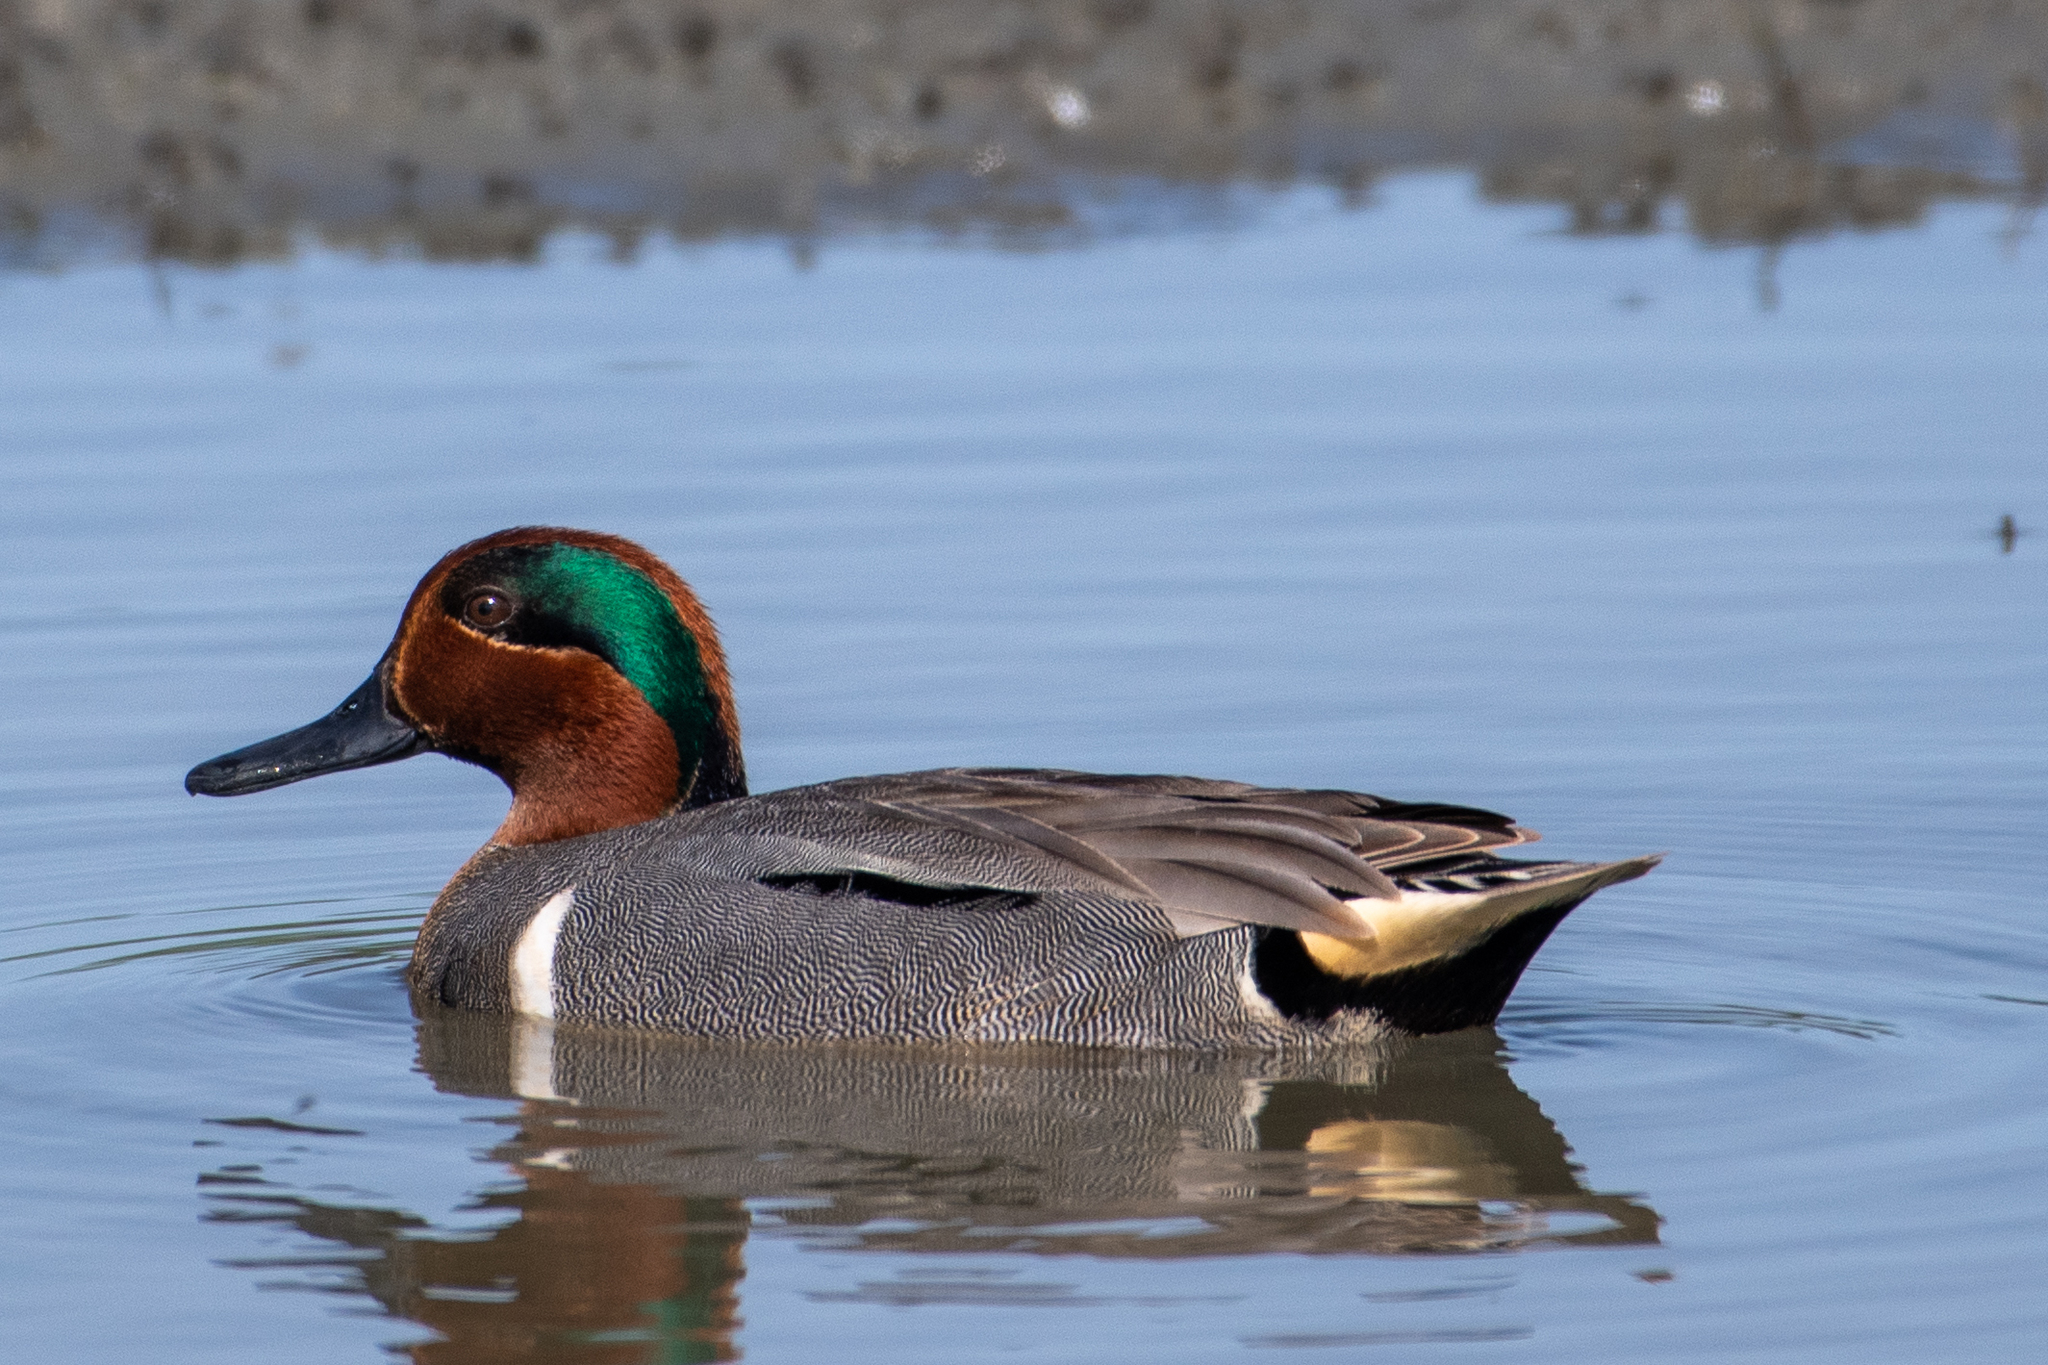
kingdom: Animalia
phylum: Chordata
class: Aves
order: Anseriformes
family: Anatidae
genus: Anas
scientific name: Anas crecca
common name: Eurasian teal
